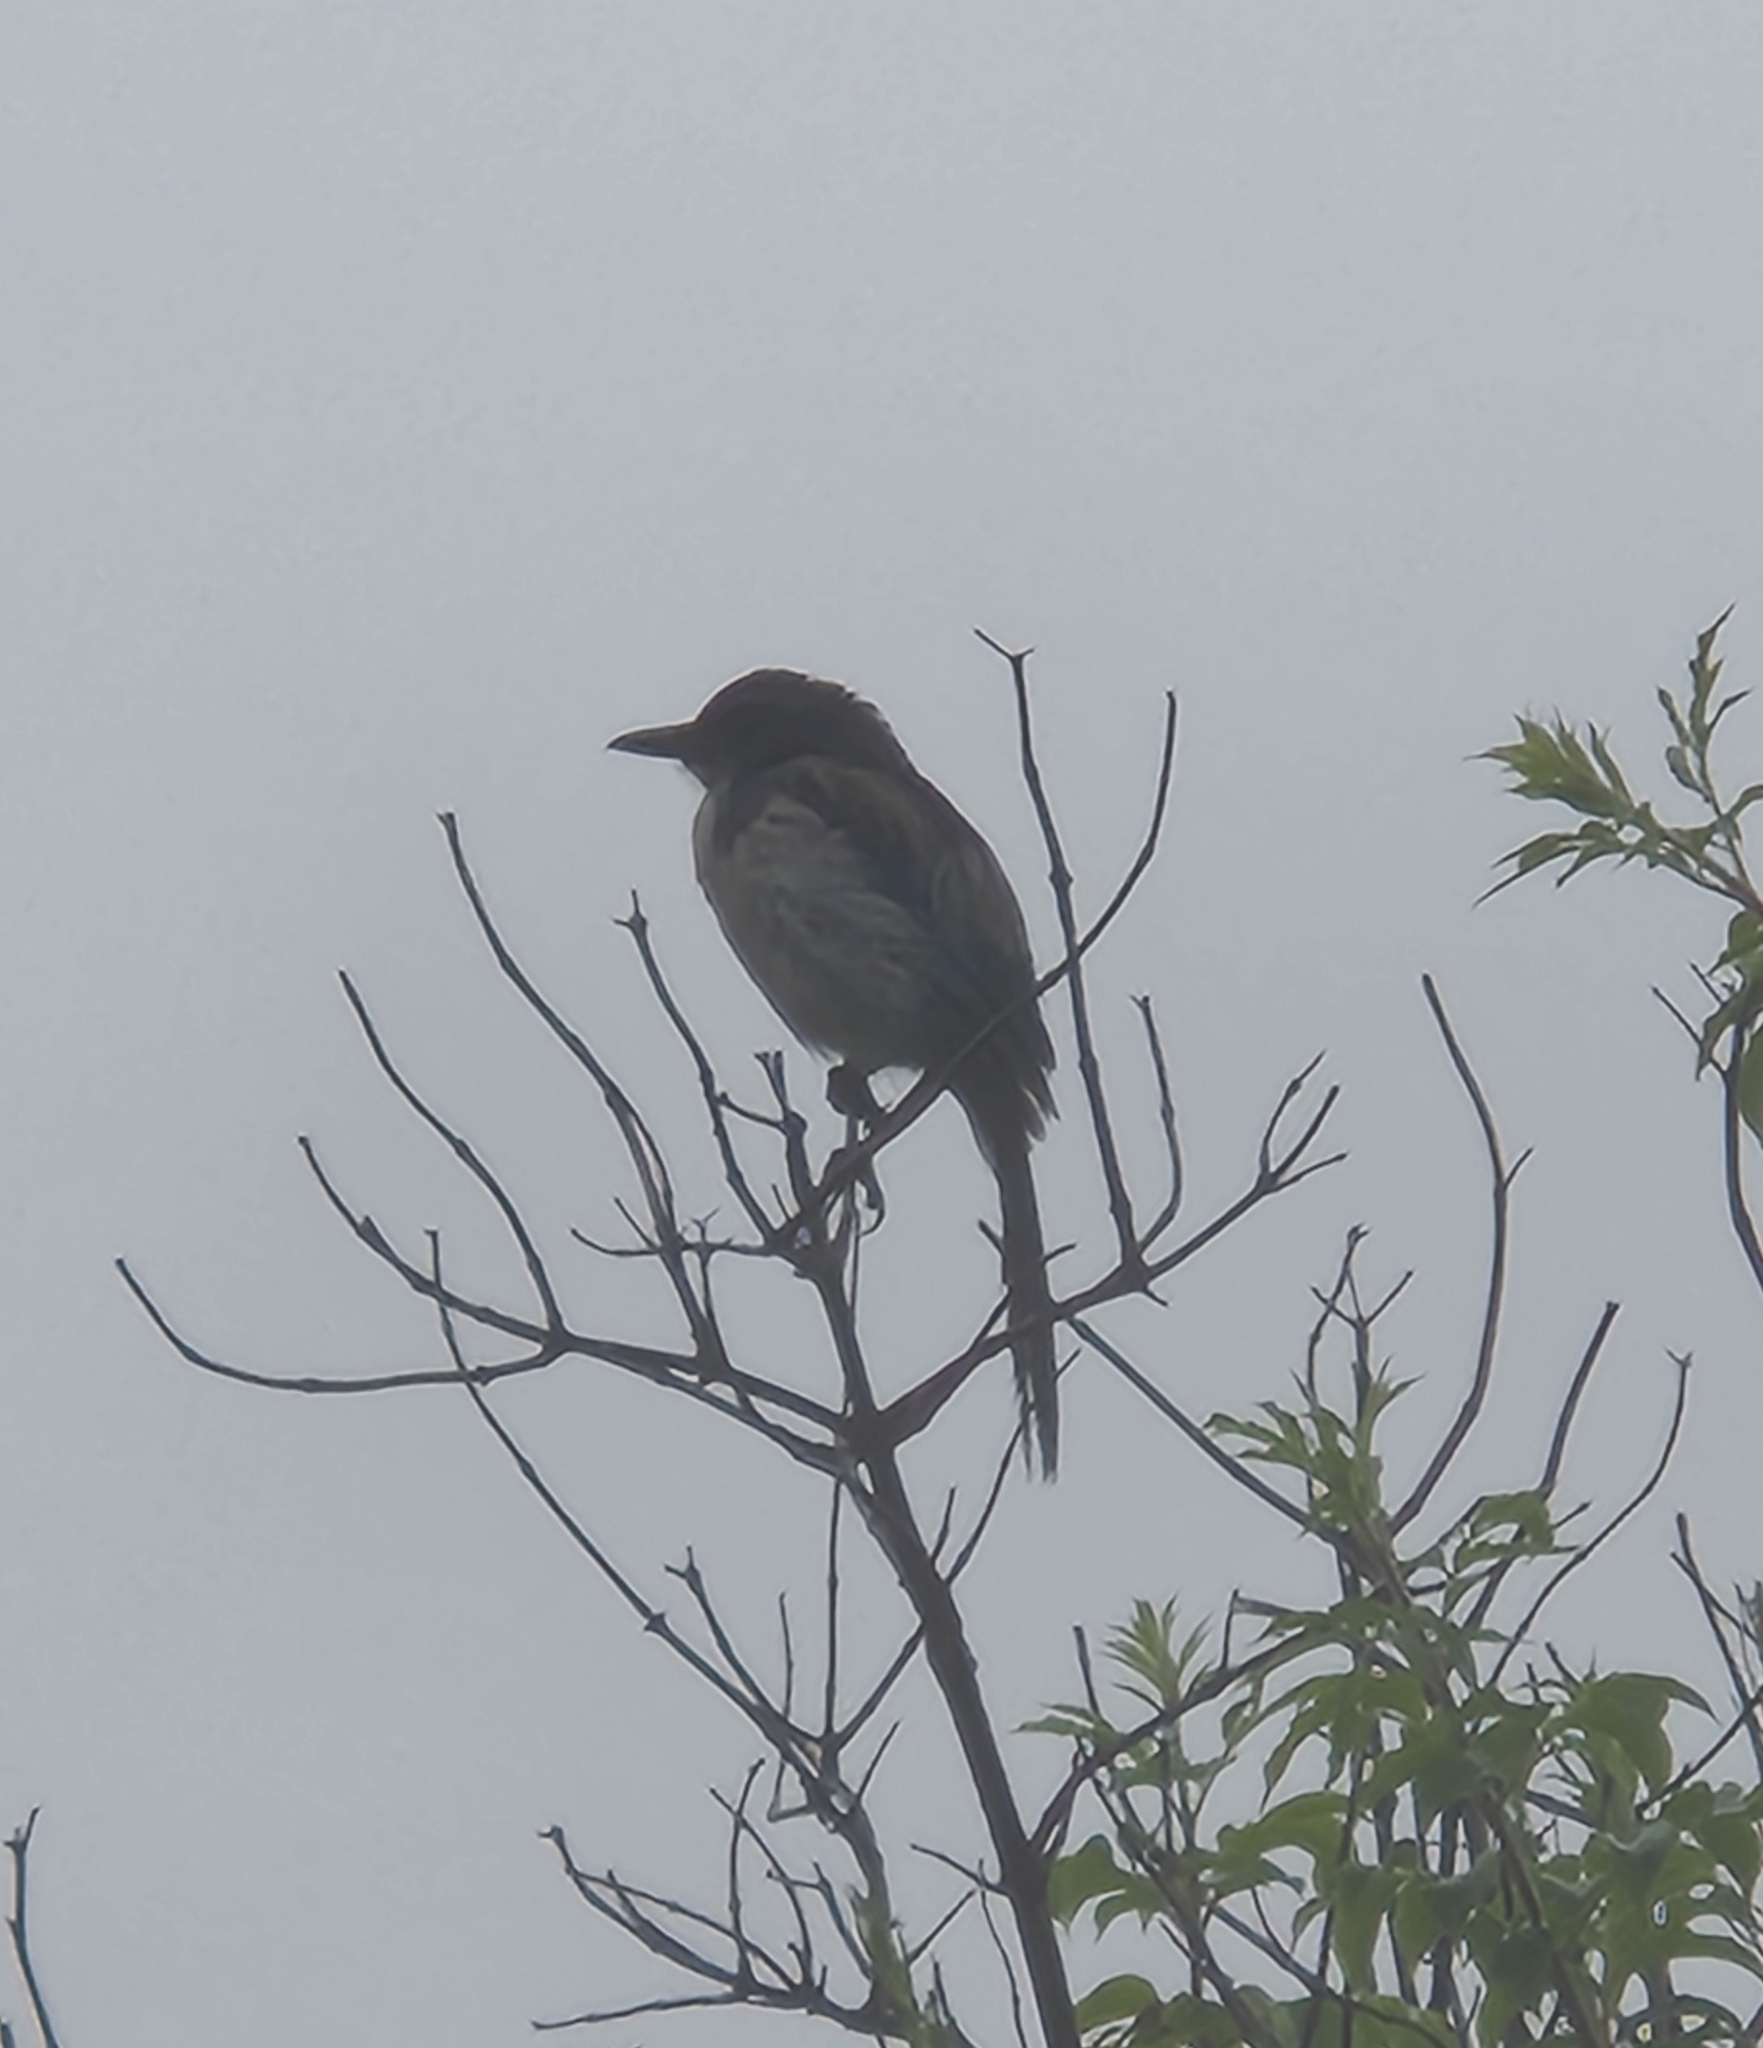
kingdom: Animalia
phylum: Chordata
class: Aves
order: Passeriformes
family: Corvidae
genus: Aphelocoma
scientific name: Aphelocoma californica
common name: California scrub-jay
